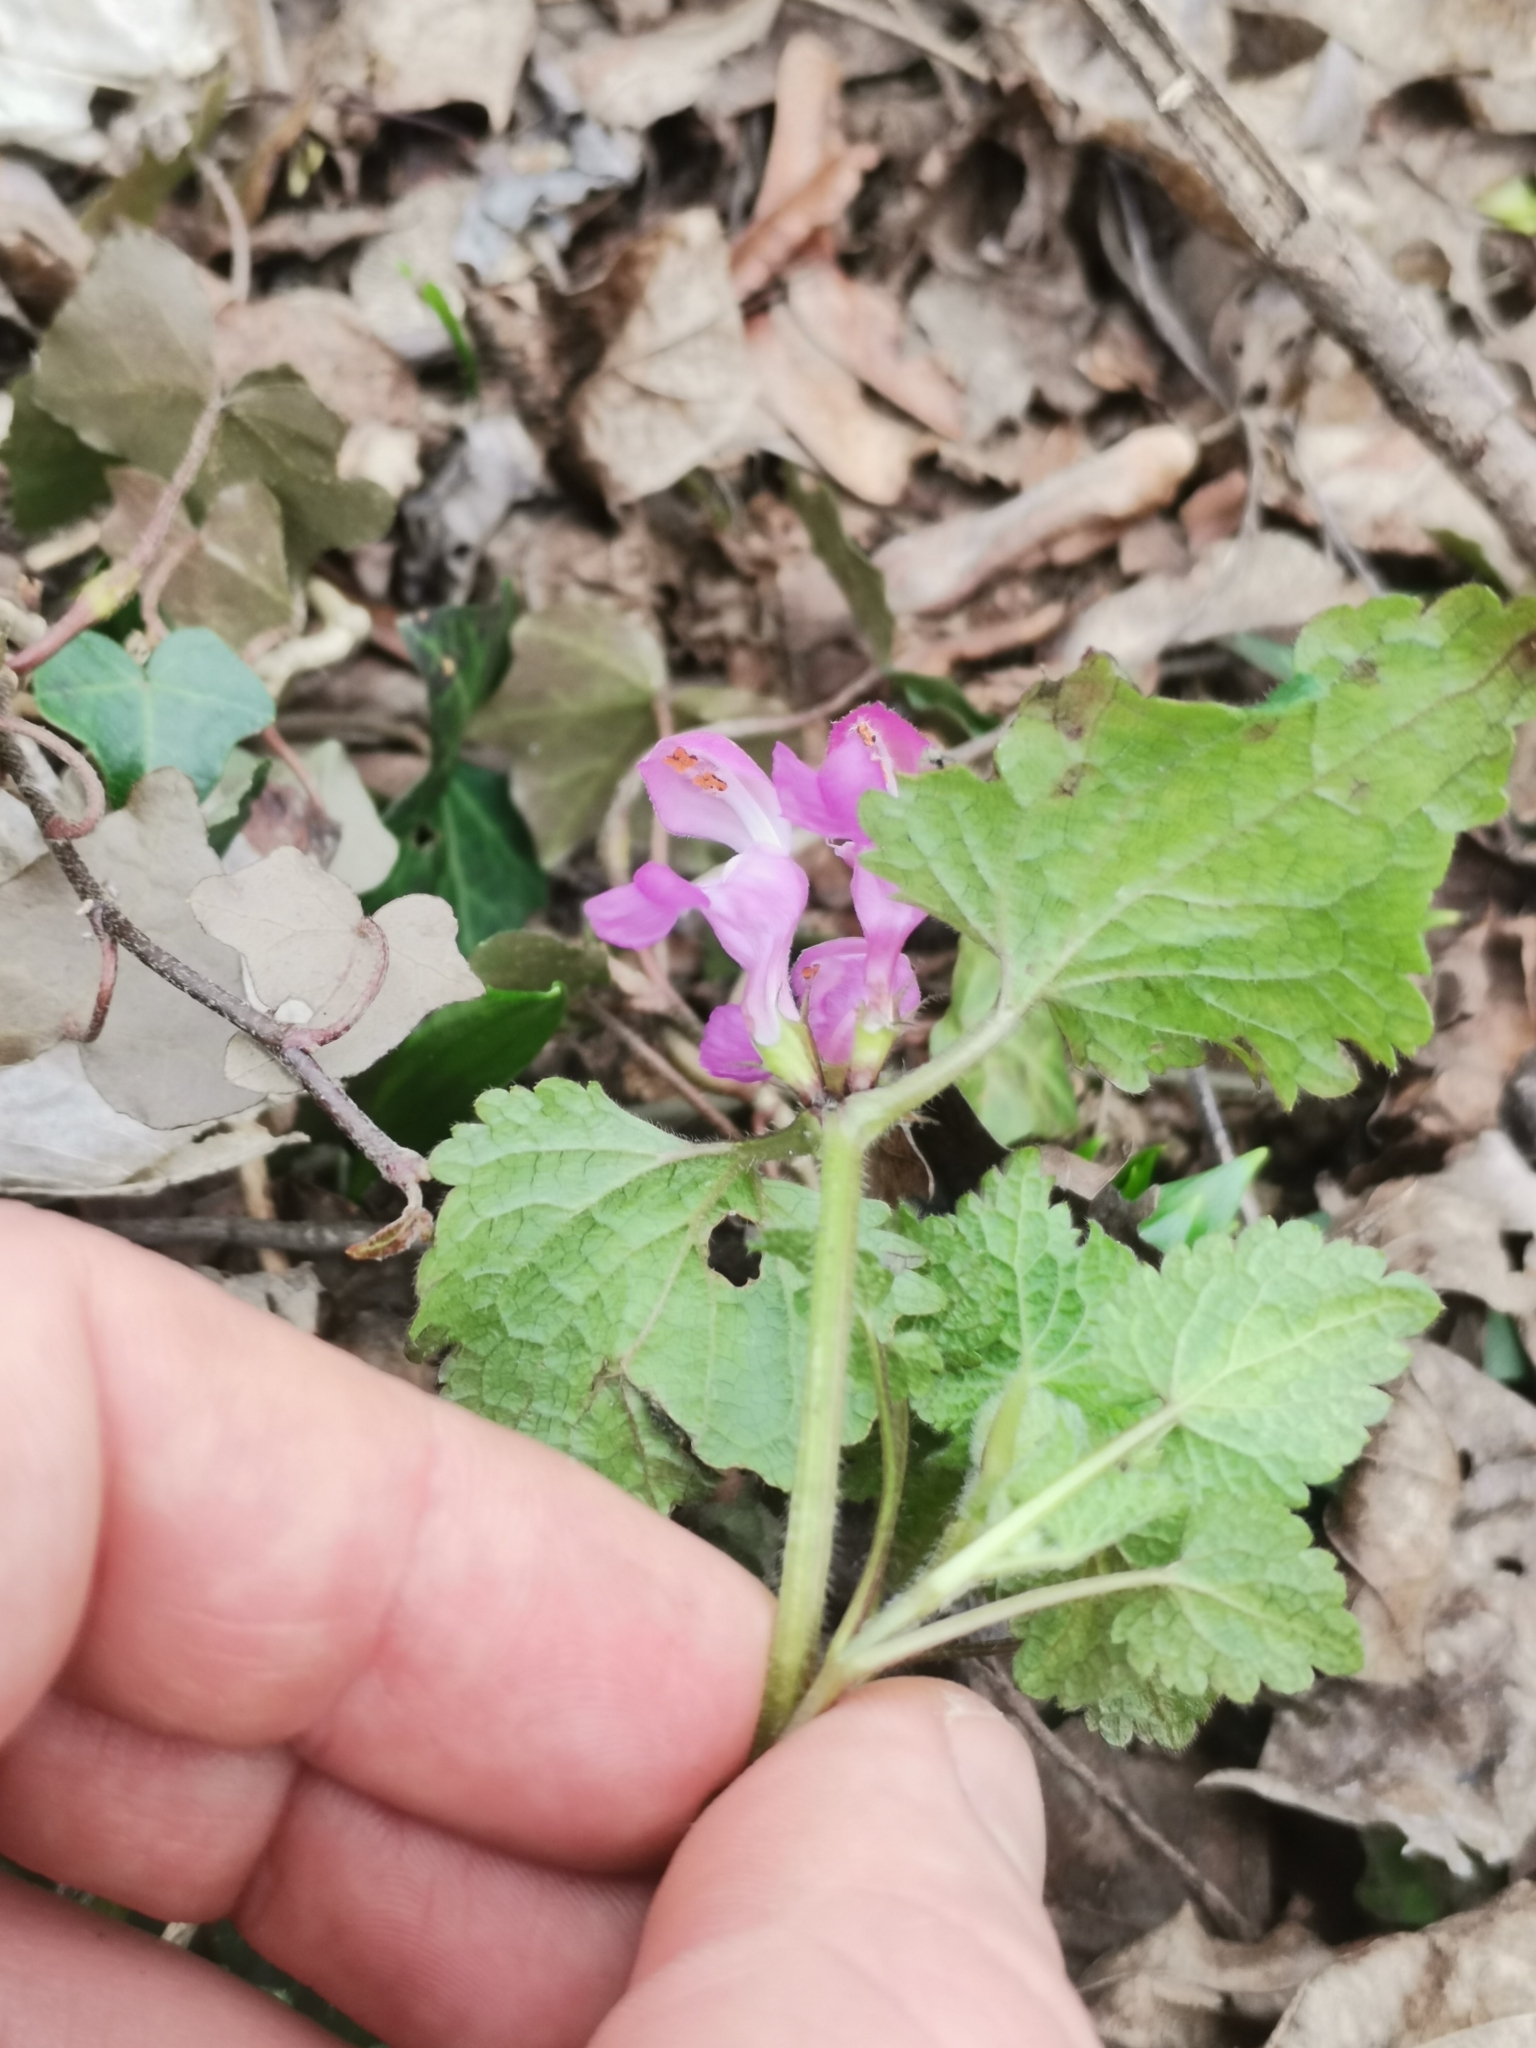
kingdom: Plantae
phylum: Tracheophyta
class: Magnoliopsida
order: Lamiales
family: Lamiaceae
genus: Lamium
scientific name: Lamium maculatum
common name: Spotted dead-nettle
